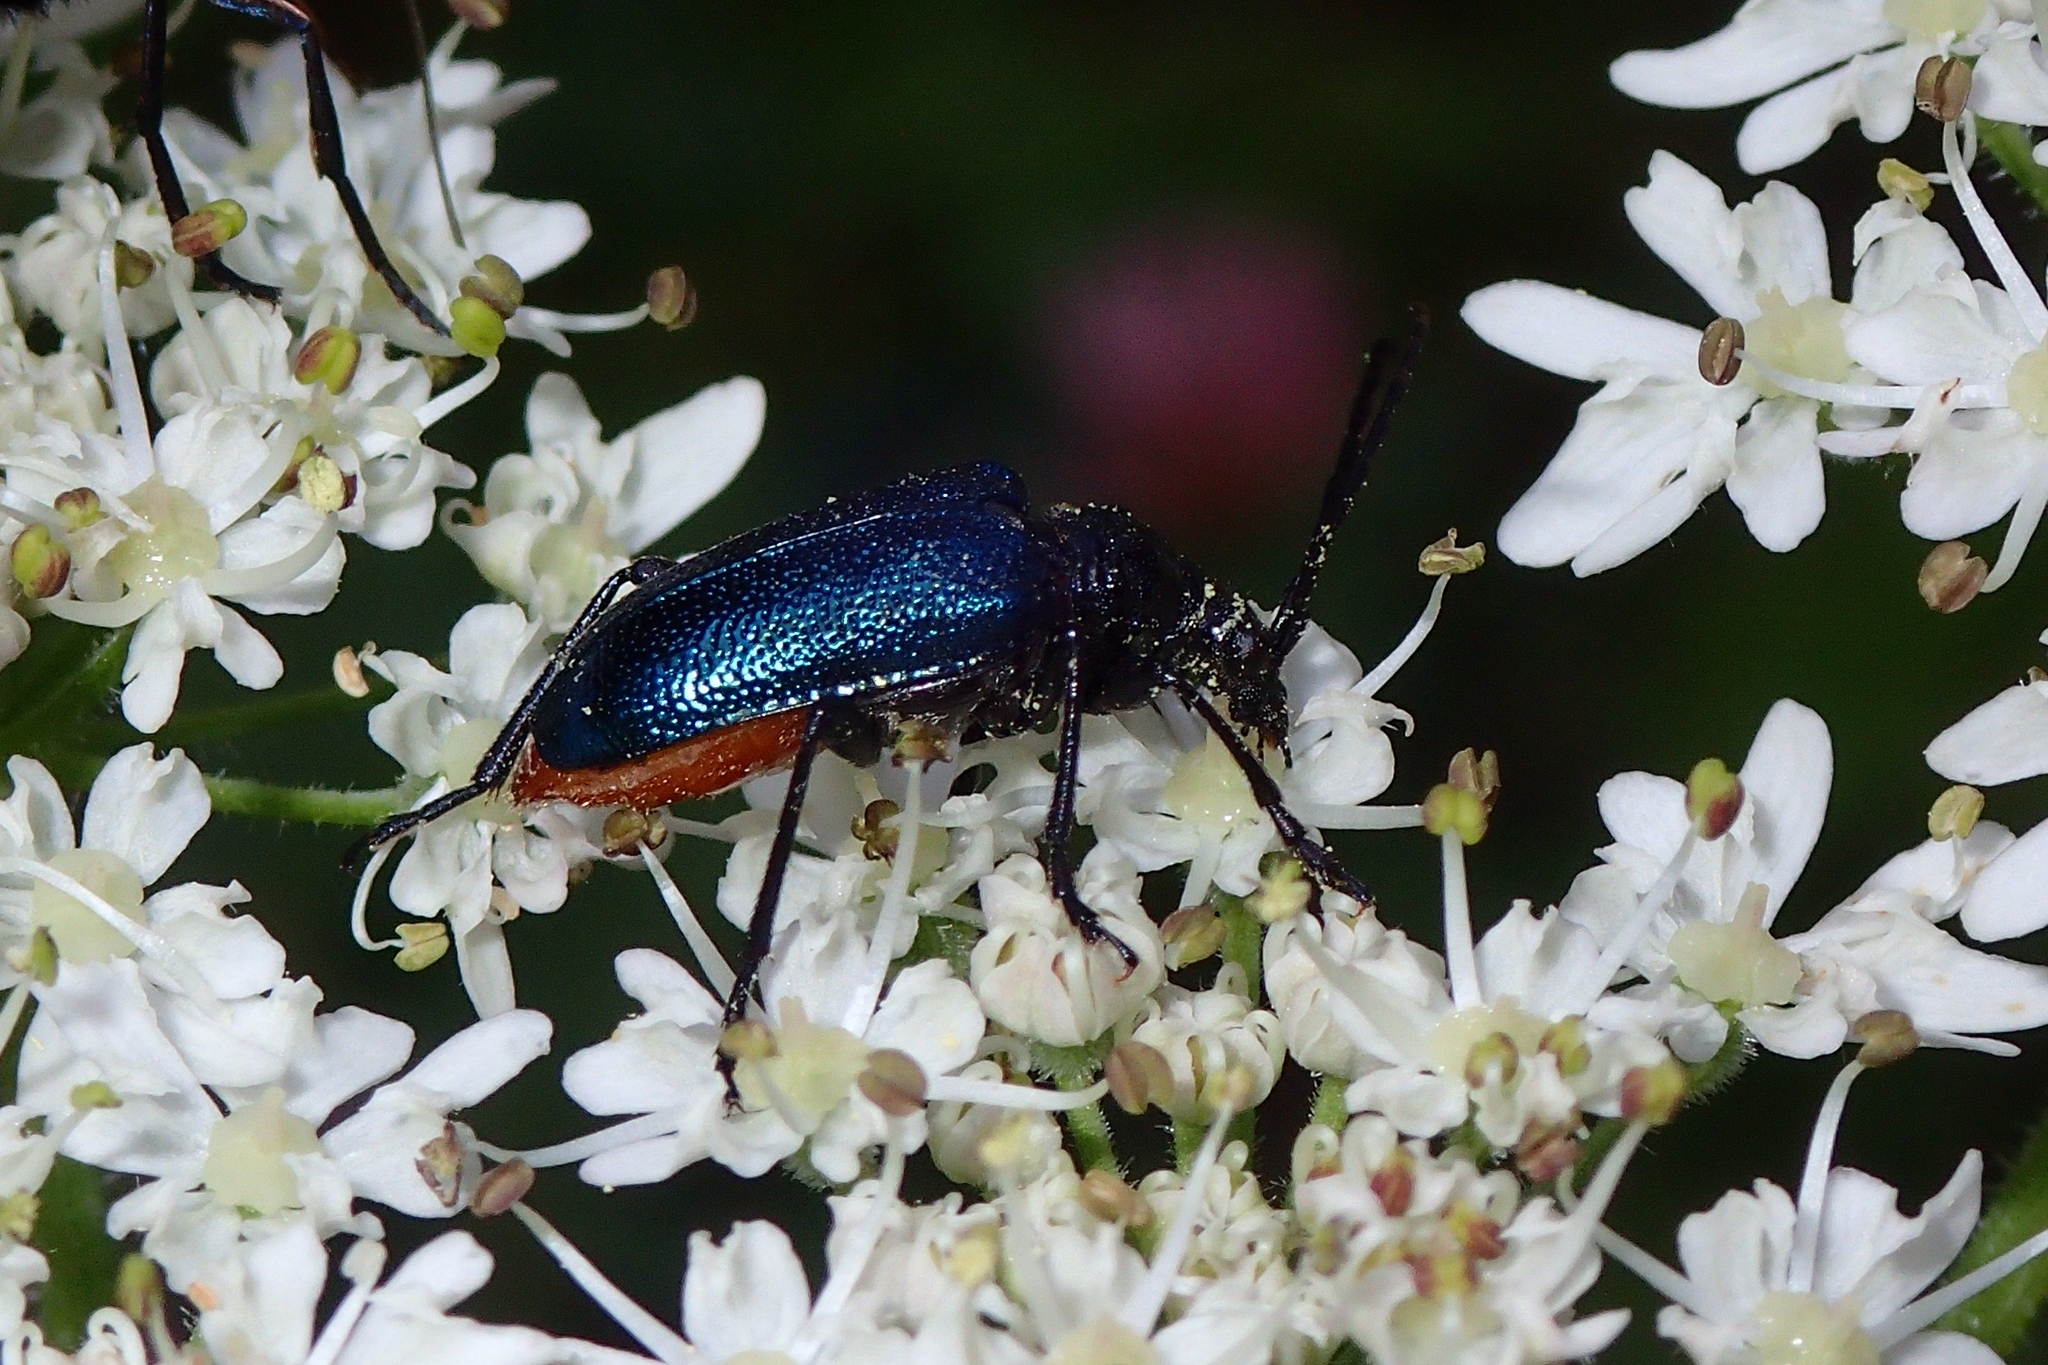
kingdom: Animalia
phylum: Arthropoda
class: Insecta
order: Coleoptera
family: Cerambycidae
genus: Gaurotes
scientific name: Gaurotes virginea
